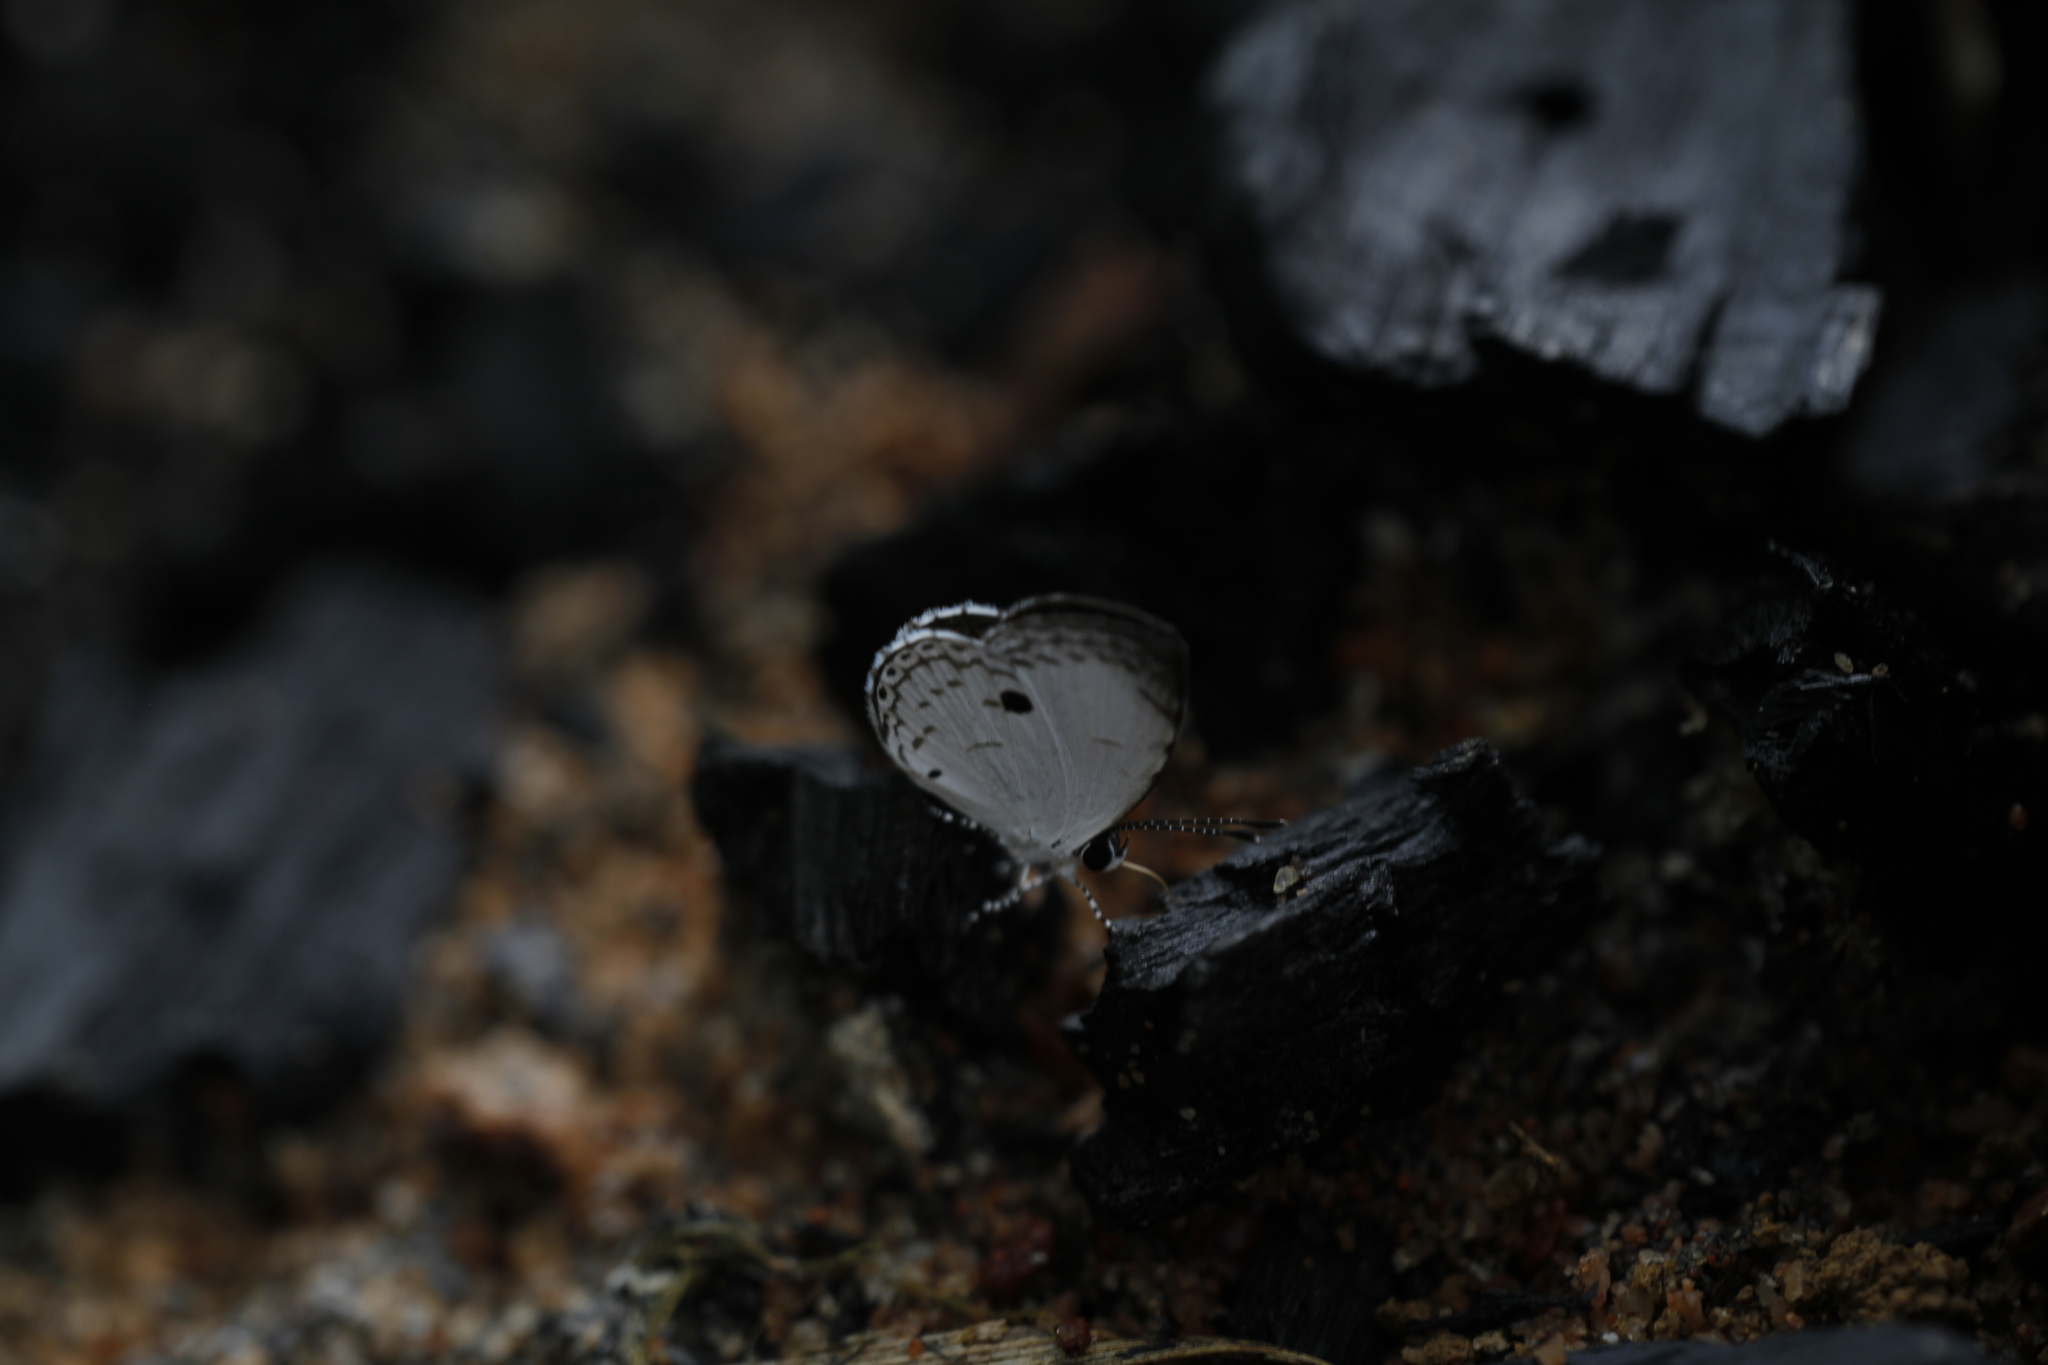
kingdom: Animalia
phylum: Arthropoda
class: Insecta
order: Lepidoptera
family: Lycaenidae
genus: Neopithecops
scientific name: Neopithecops zalmora
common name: Quaker
